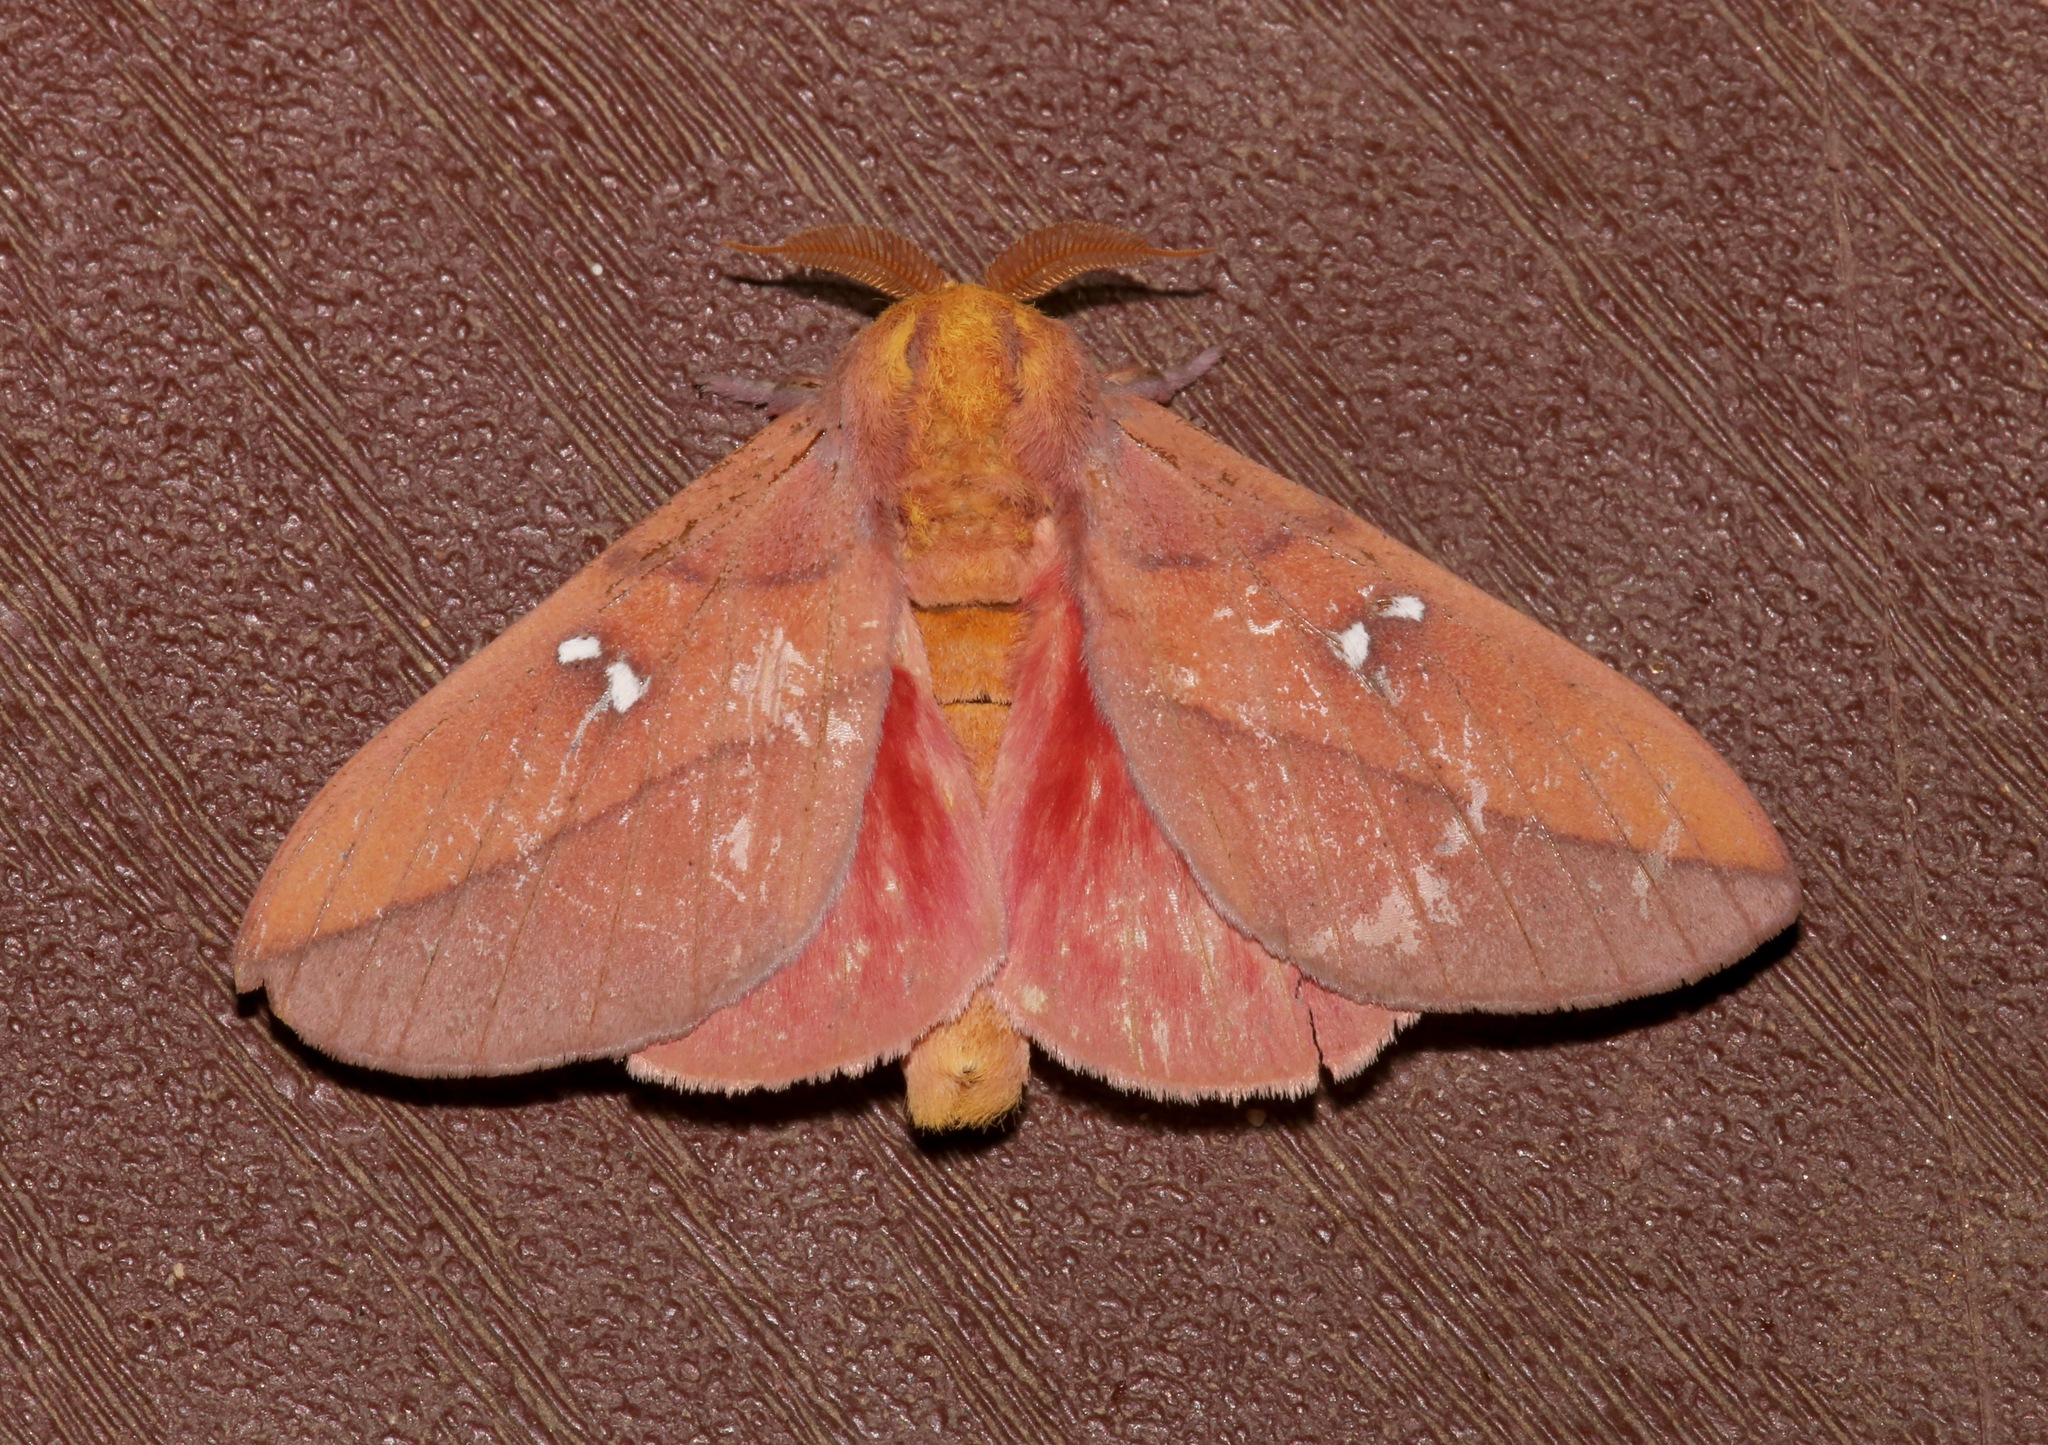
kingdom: Animalia
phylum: Arthropoda
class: Insecta
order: Lepidoptera
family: Saturniidae
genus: Syssphinx
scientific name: Syssphinx montana
